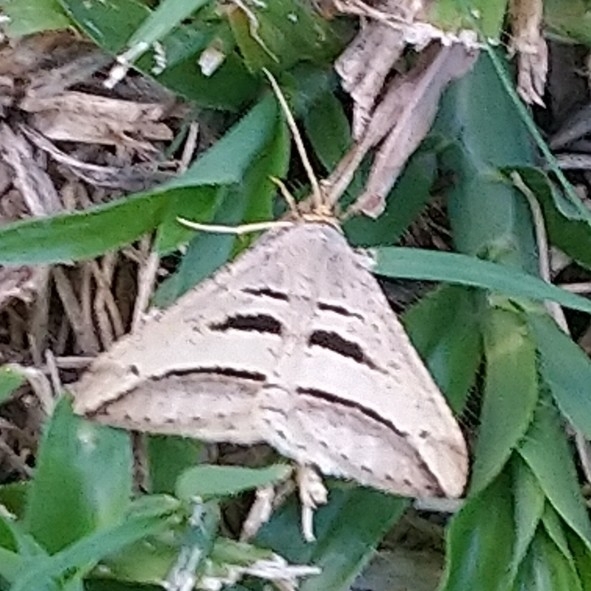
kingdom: Animalia
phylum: Arthropoda
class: Insecta
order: Lepidoptera
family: Geometridae
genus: Chiasmia
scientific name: Chiasmia subcurvaria
